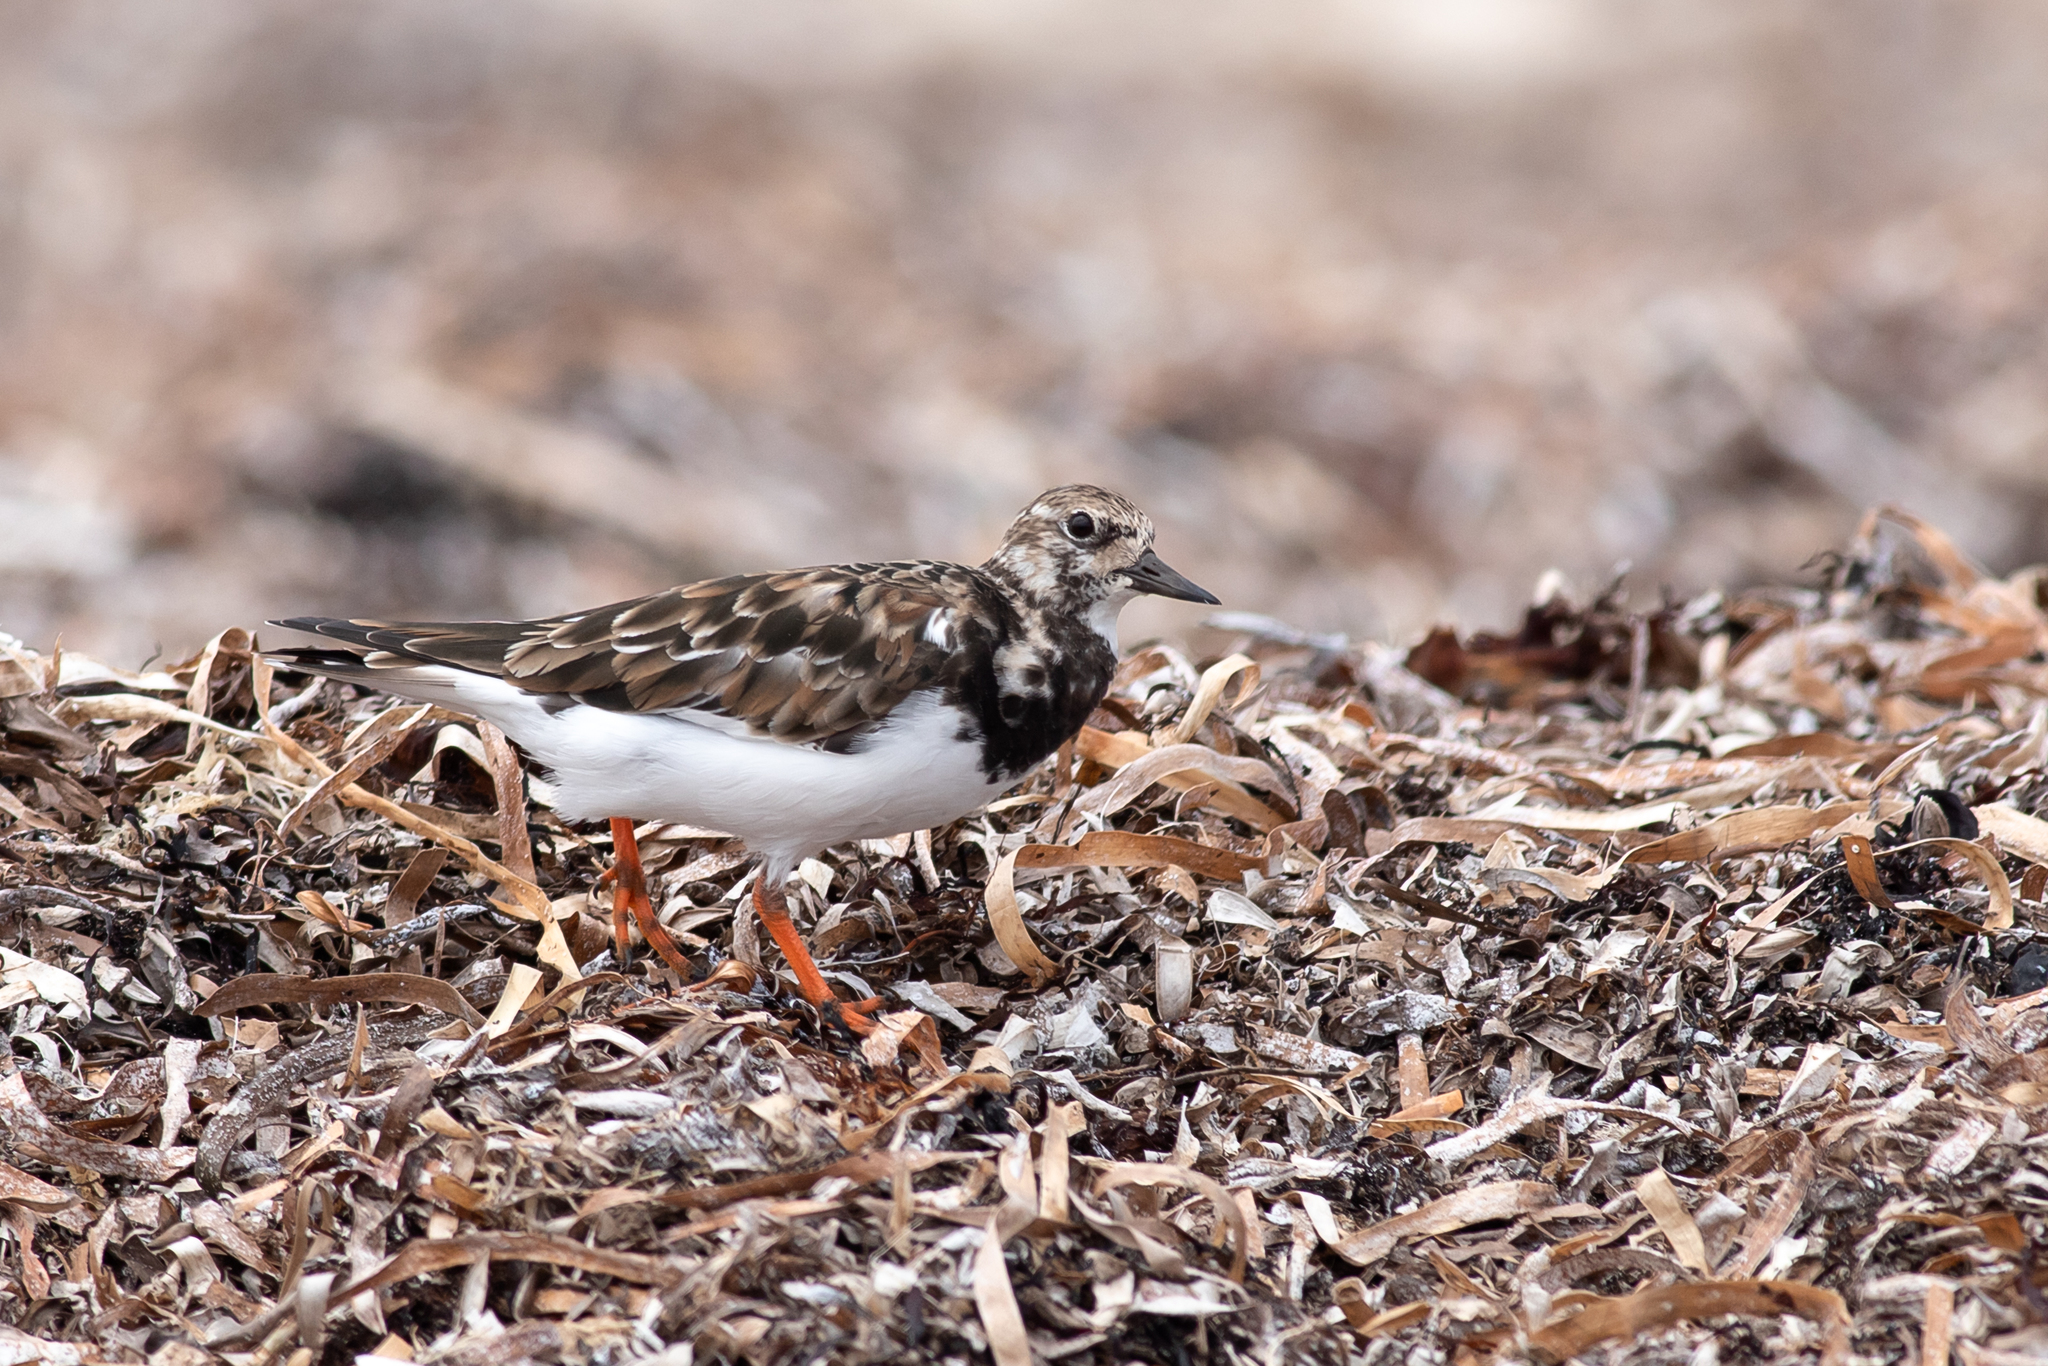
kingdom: Animalia
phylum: Chordata
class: Aves
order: Charadriiformes
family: Scolopacidae
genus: Arenaria
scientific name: Arenaria interpres
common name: Ruddy turnstone
